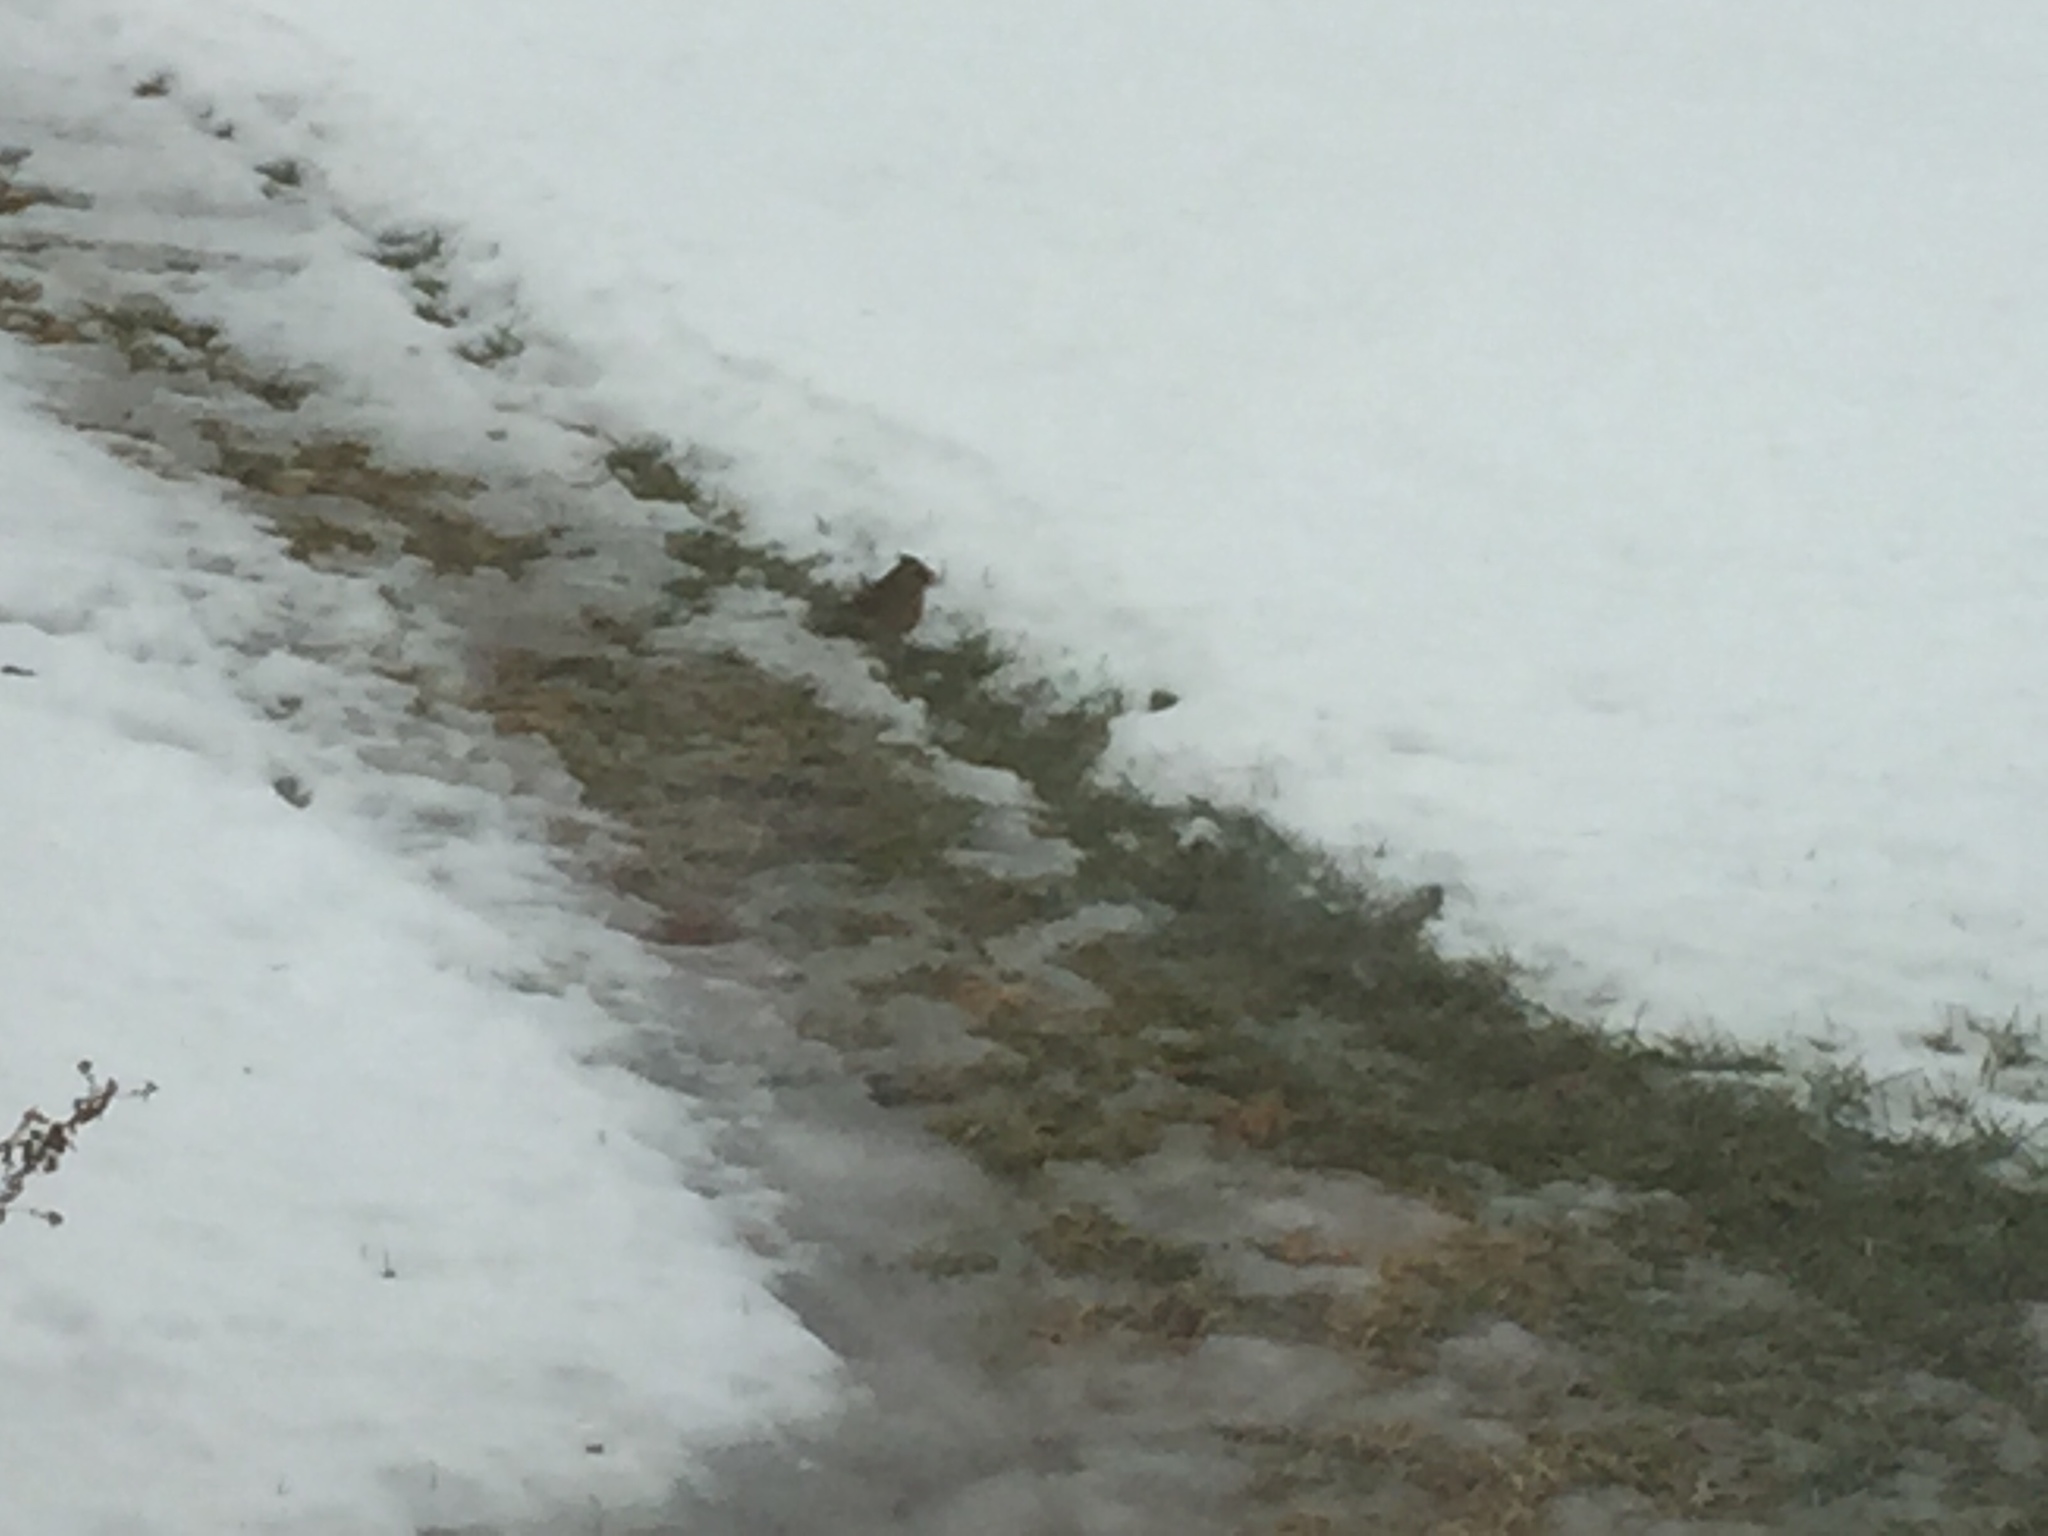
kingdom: Animalia
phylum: Chordata
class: Aves
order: Passeriformes
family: Cardinalidae
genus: Cardinalis
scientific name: Cardinalis cardinalis
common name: Northern cardinal
